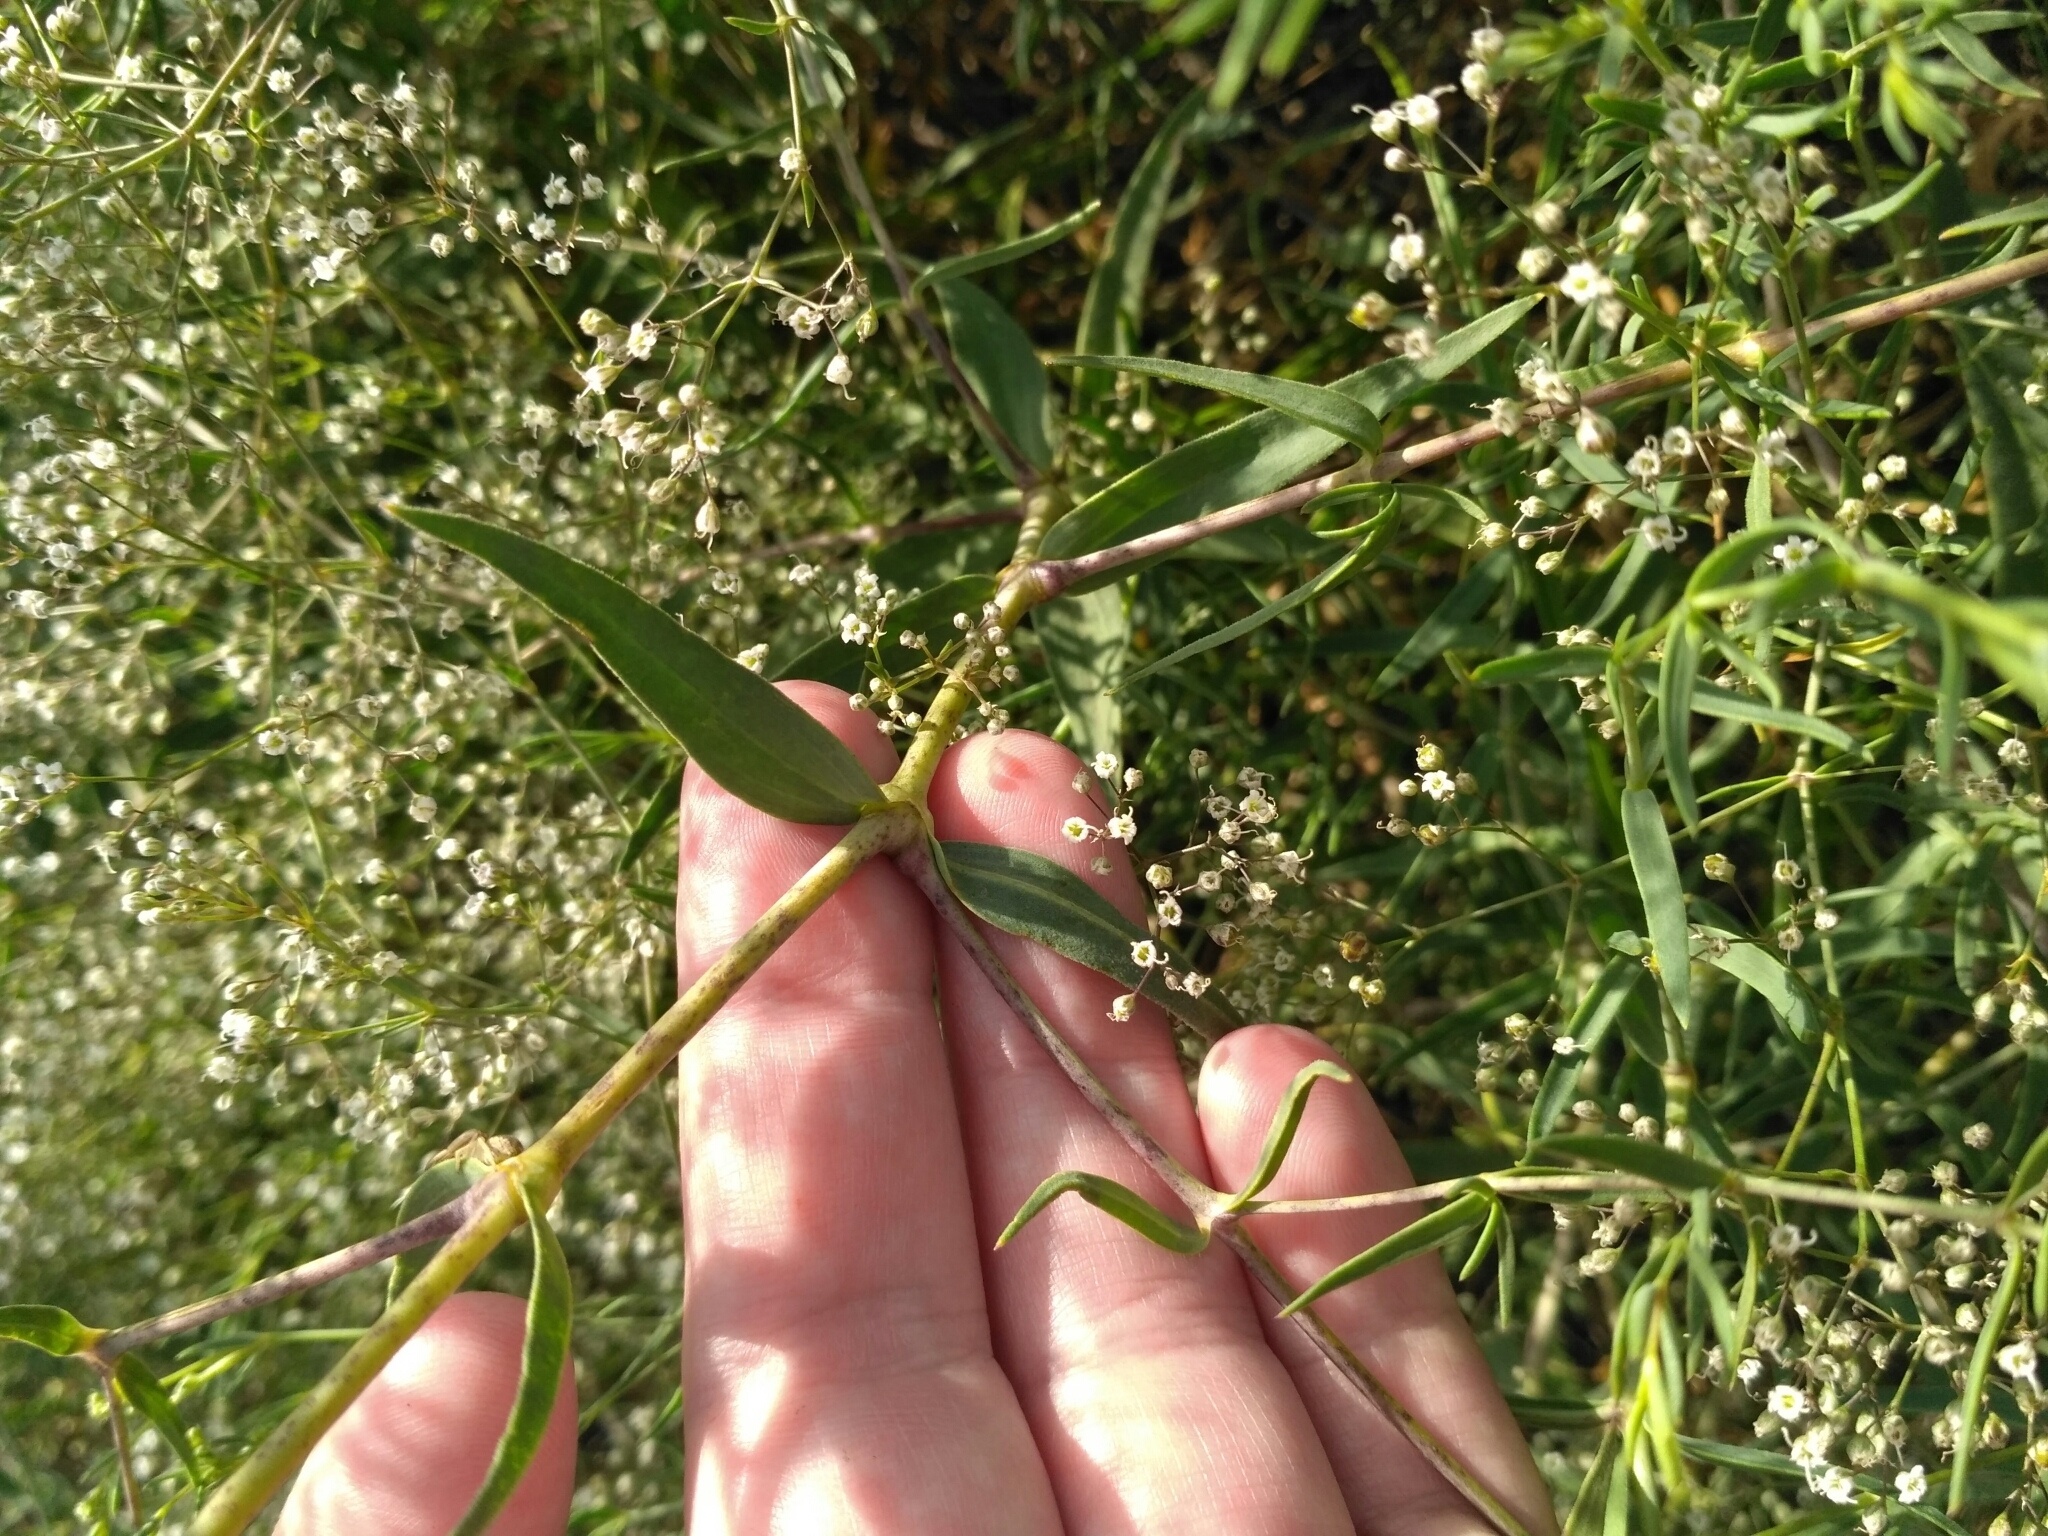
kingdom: Plantae
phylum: Tracheophyta
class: Magnoliopsida
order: Caryophyllales
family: Caryophyllaceae
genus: Gypsophila
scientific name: Gypsophila paniculata
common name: Baby's-breath
